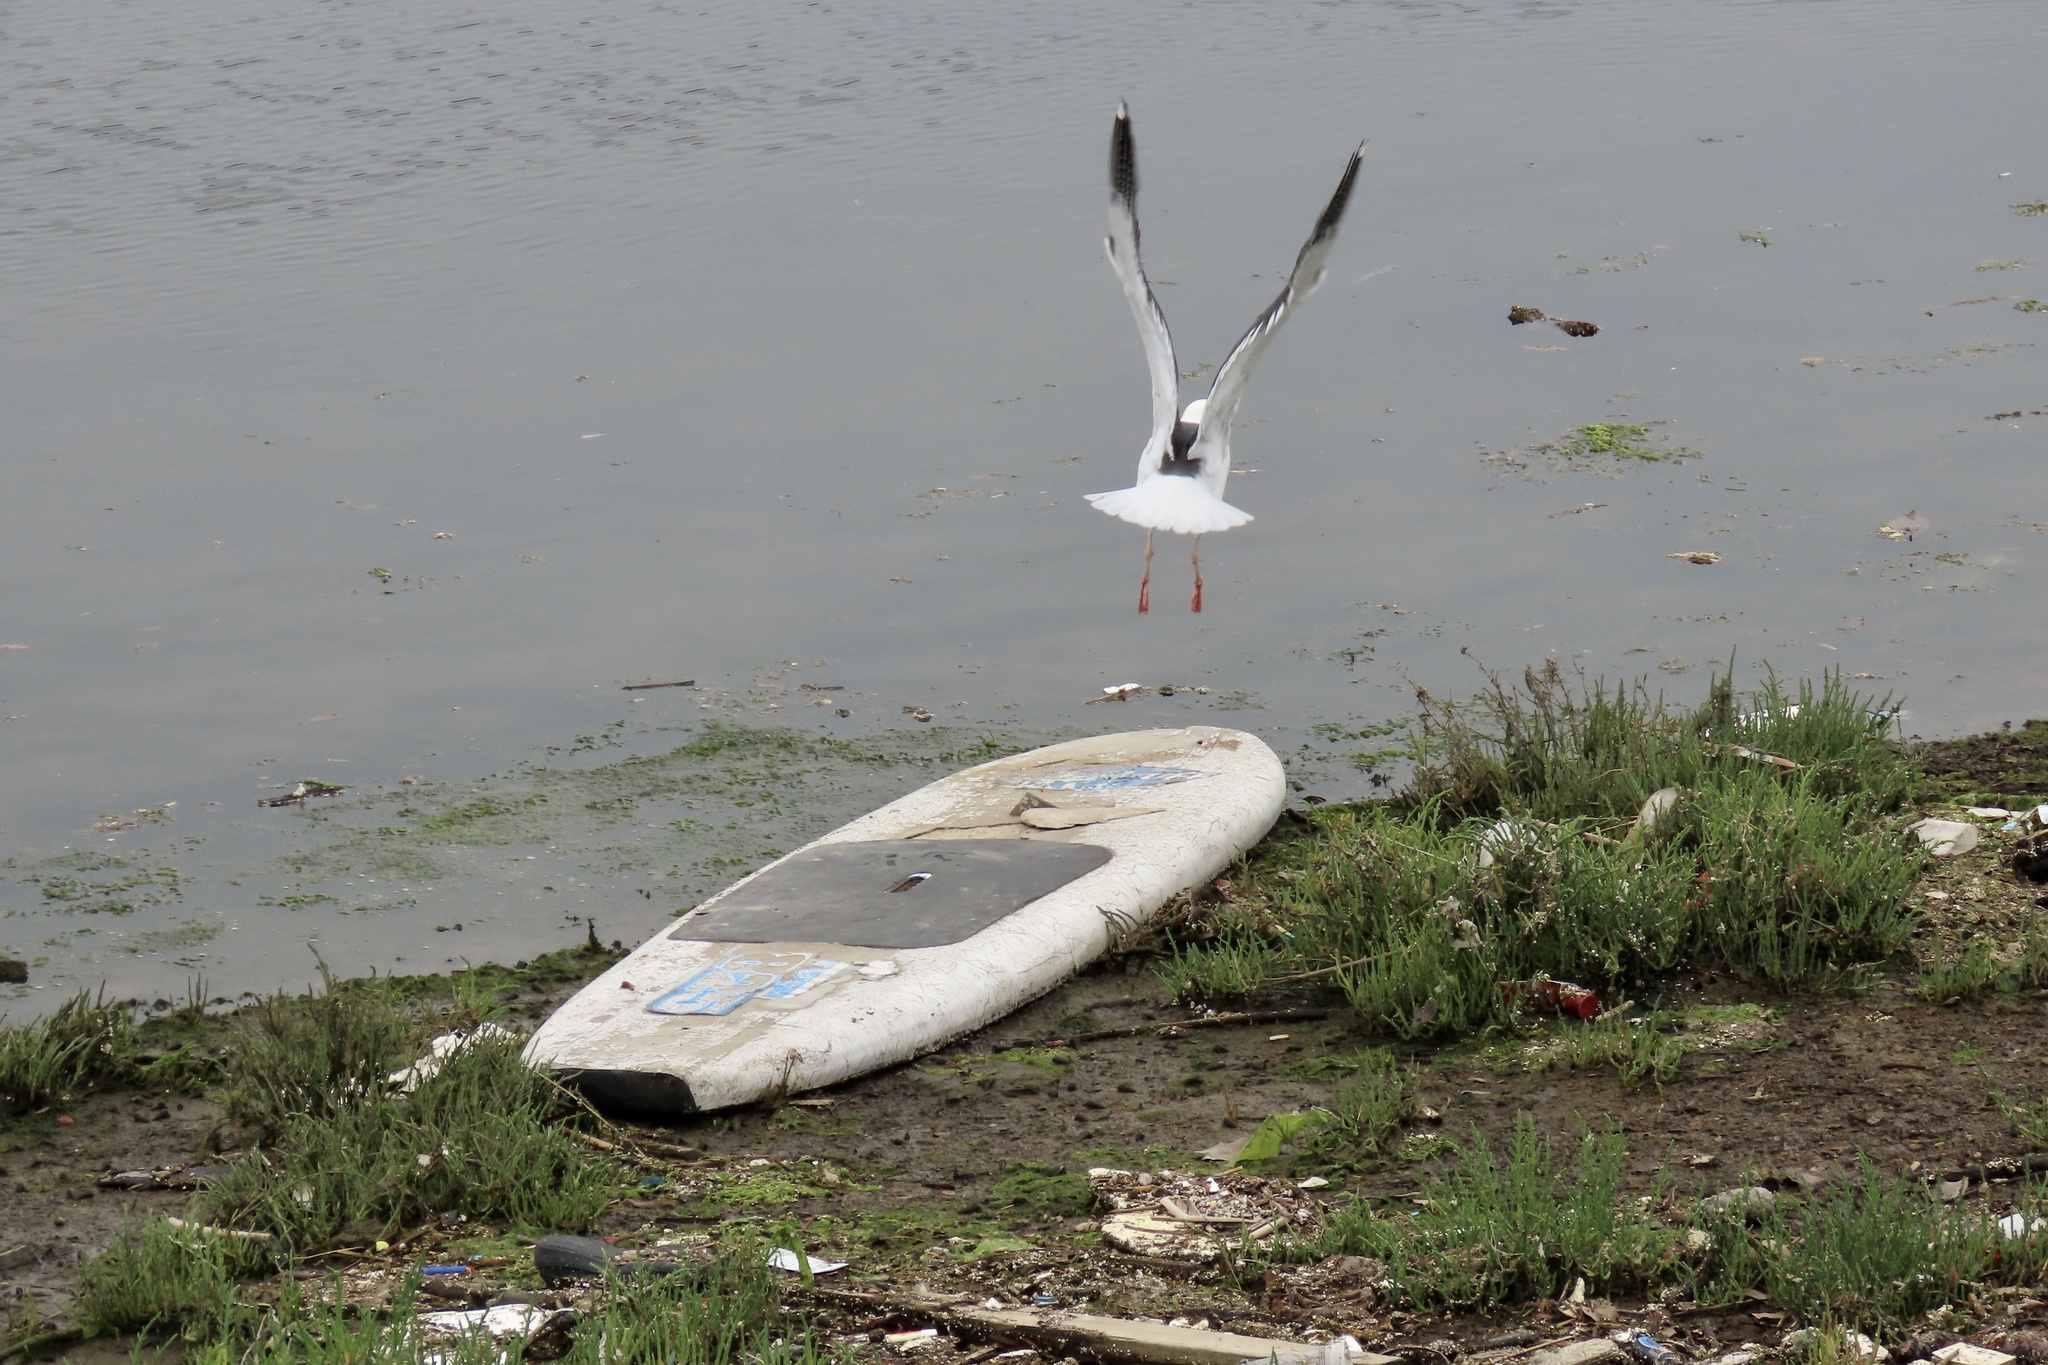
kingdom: Animalia
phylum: Chordata
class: Aves
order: Charadriiformes
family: Laridae
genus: Larus
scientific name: Larus occidentalis
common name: Western gull
